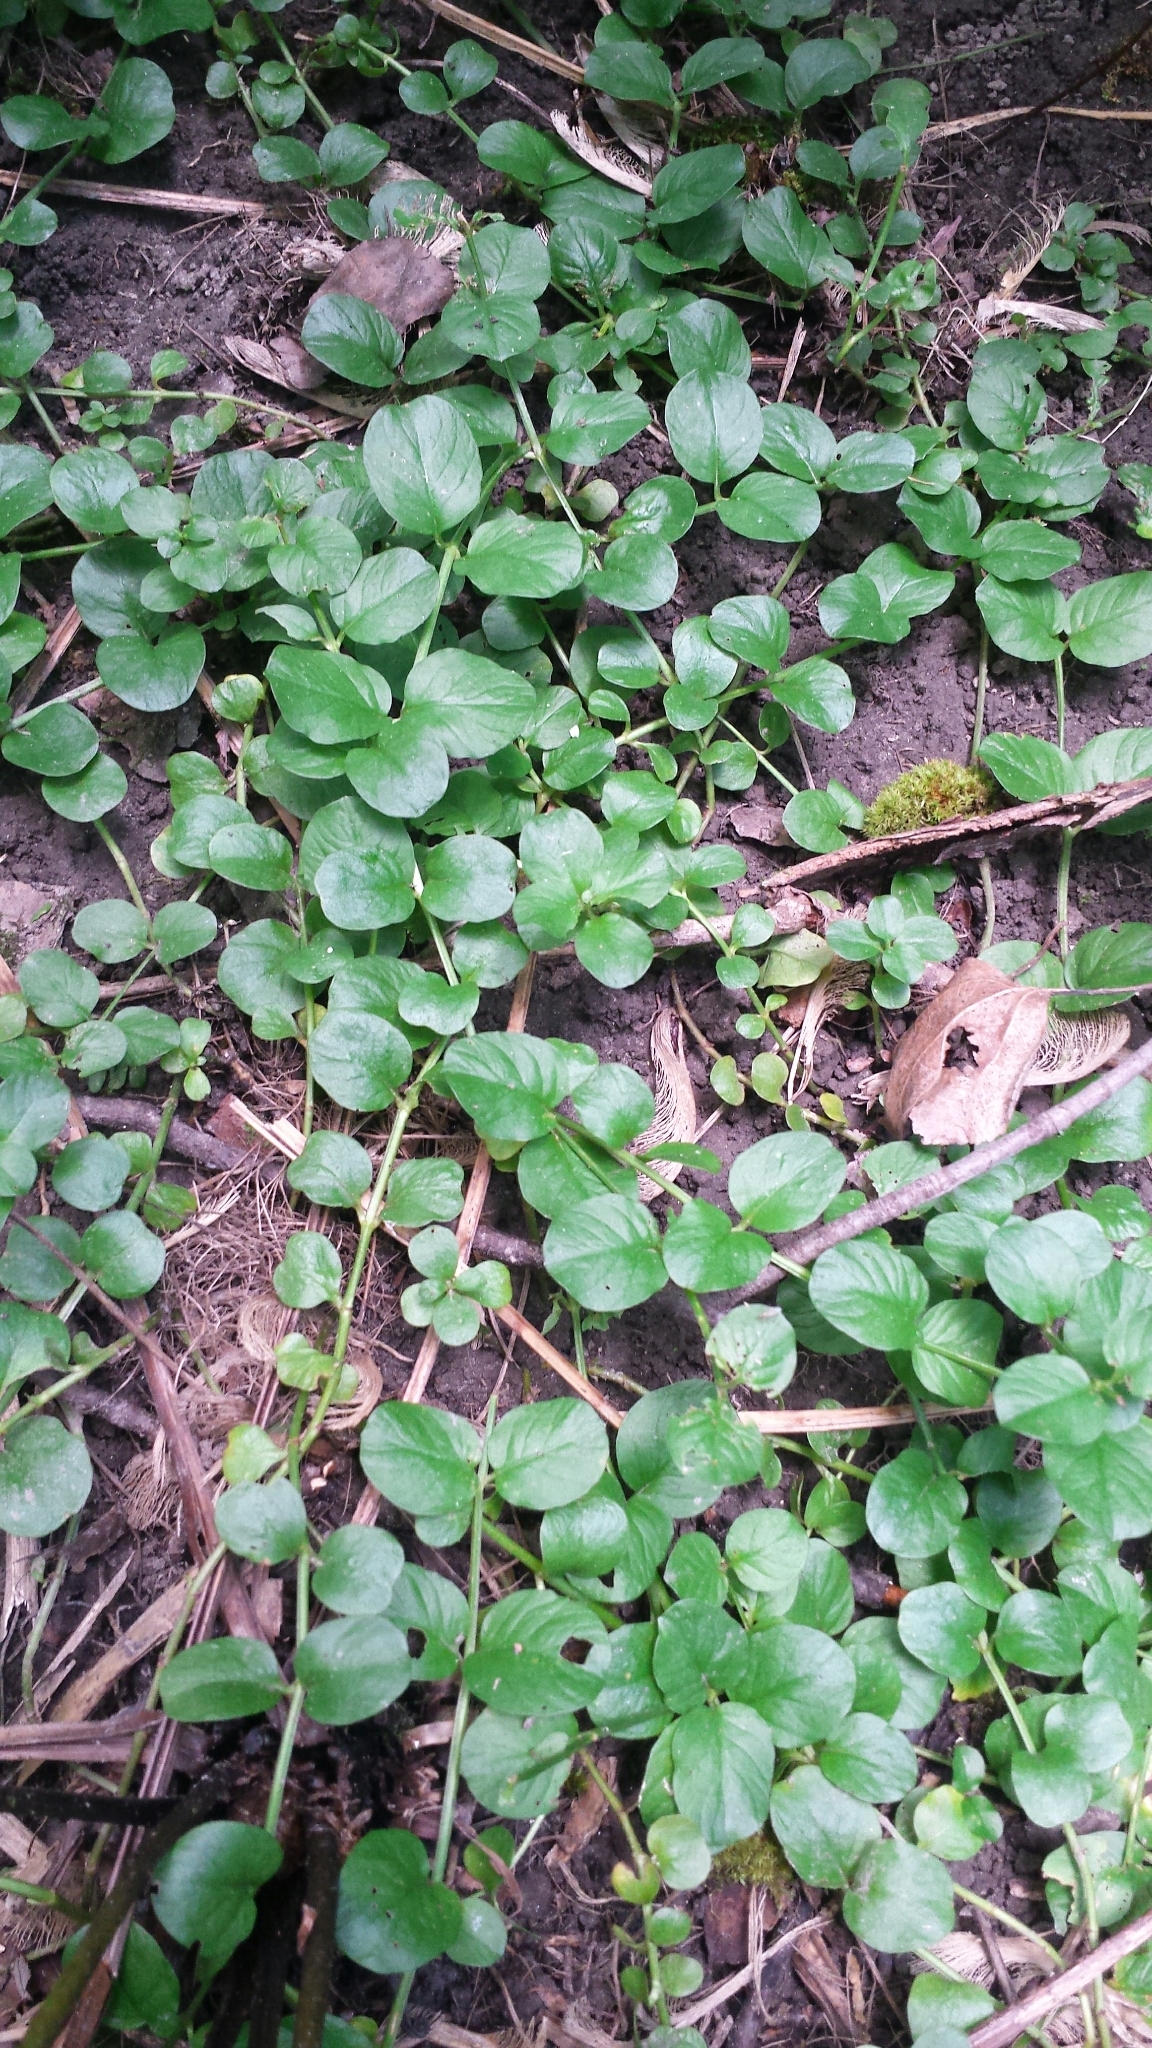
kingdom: Plantae
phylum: Tracheophyta
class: Magnoliopsida
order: Ericales
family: Primulaceae
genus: Lysimachia
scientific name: Lysimachia nummularia
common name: Moneywort
